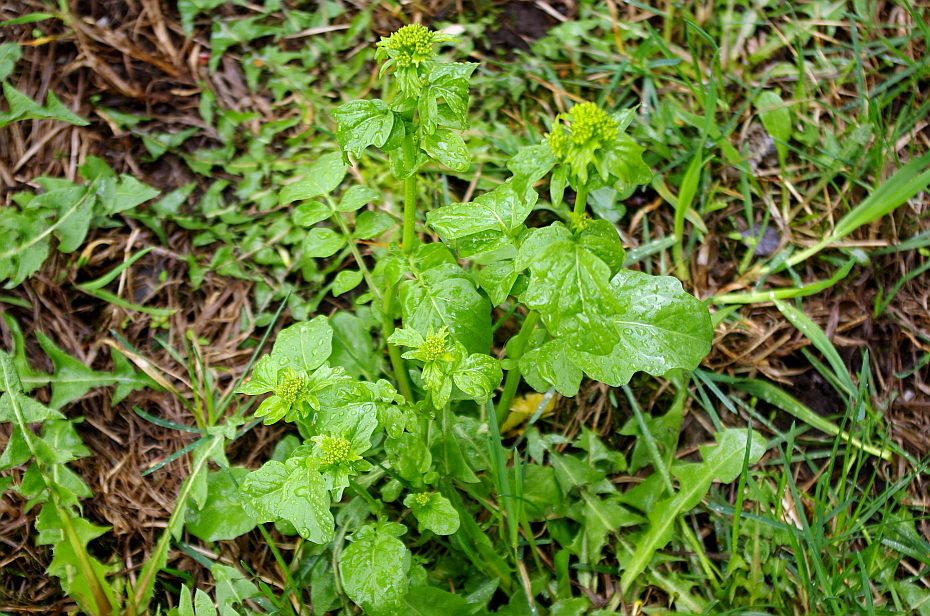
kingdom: Plantae
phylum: Tracheophyta
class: Magnoliopsida
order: Brassicales
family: Brassicaceae
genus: Barbarea
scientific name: Barbarea vulgaris
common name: Cressy-greens
